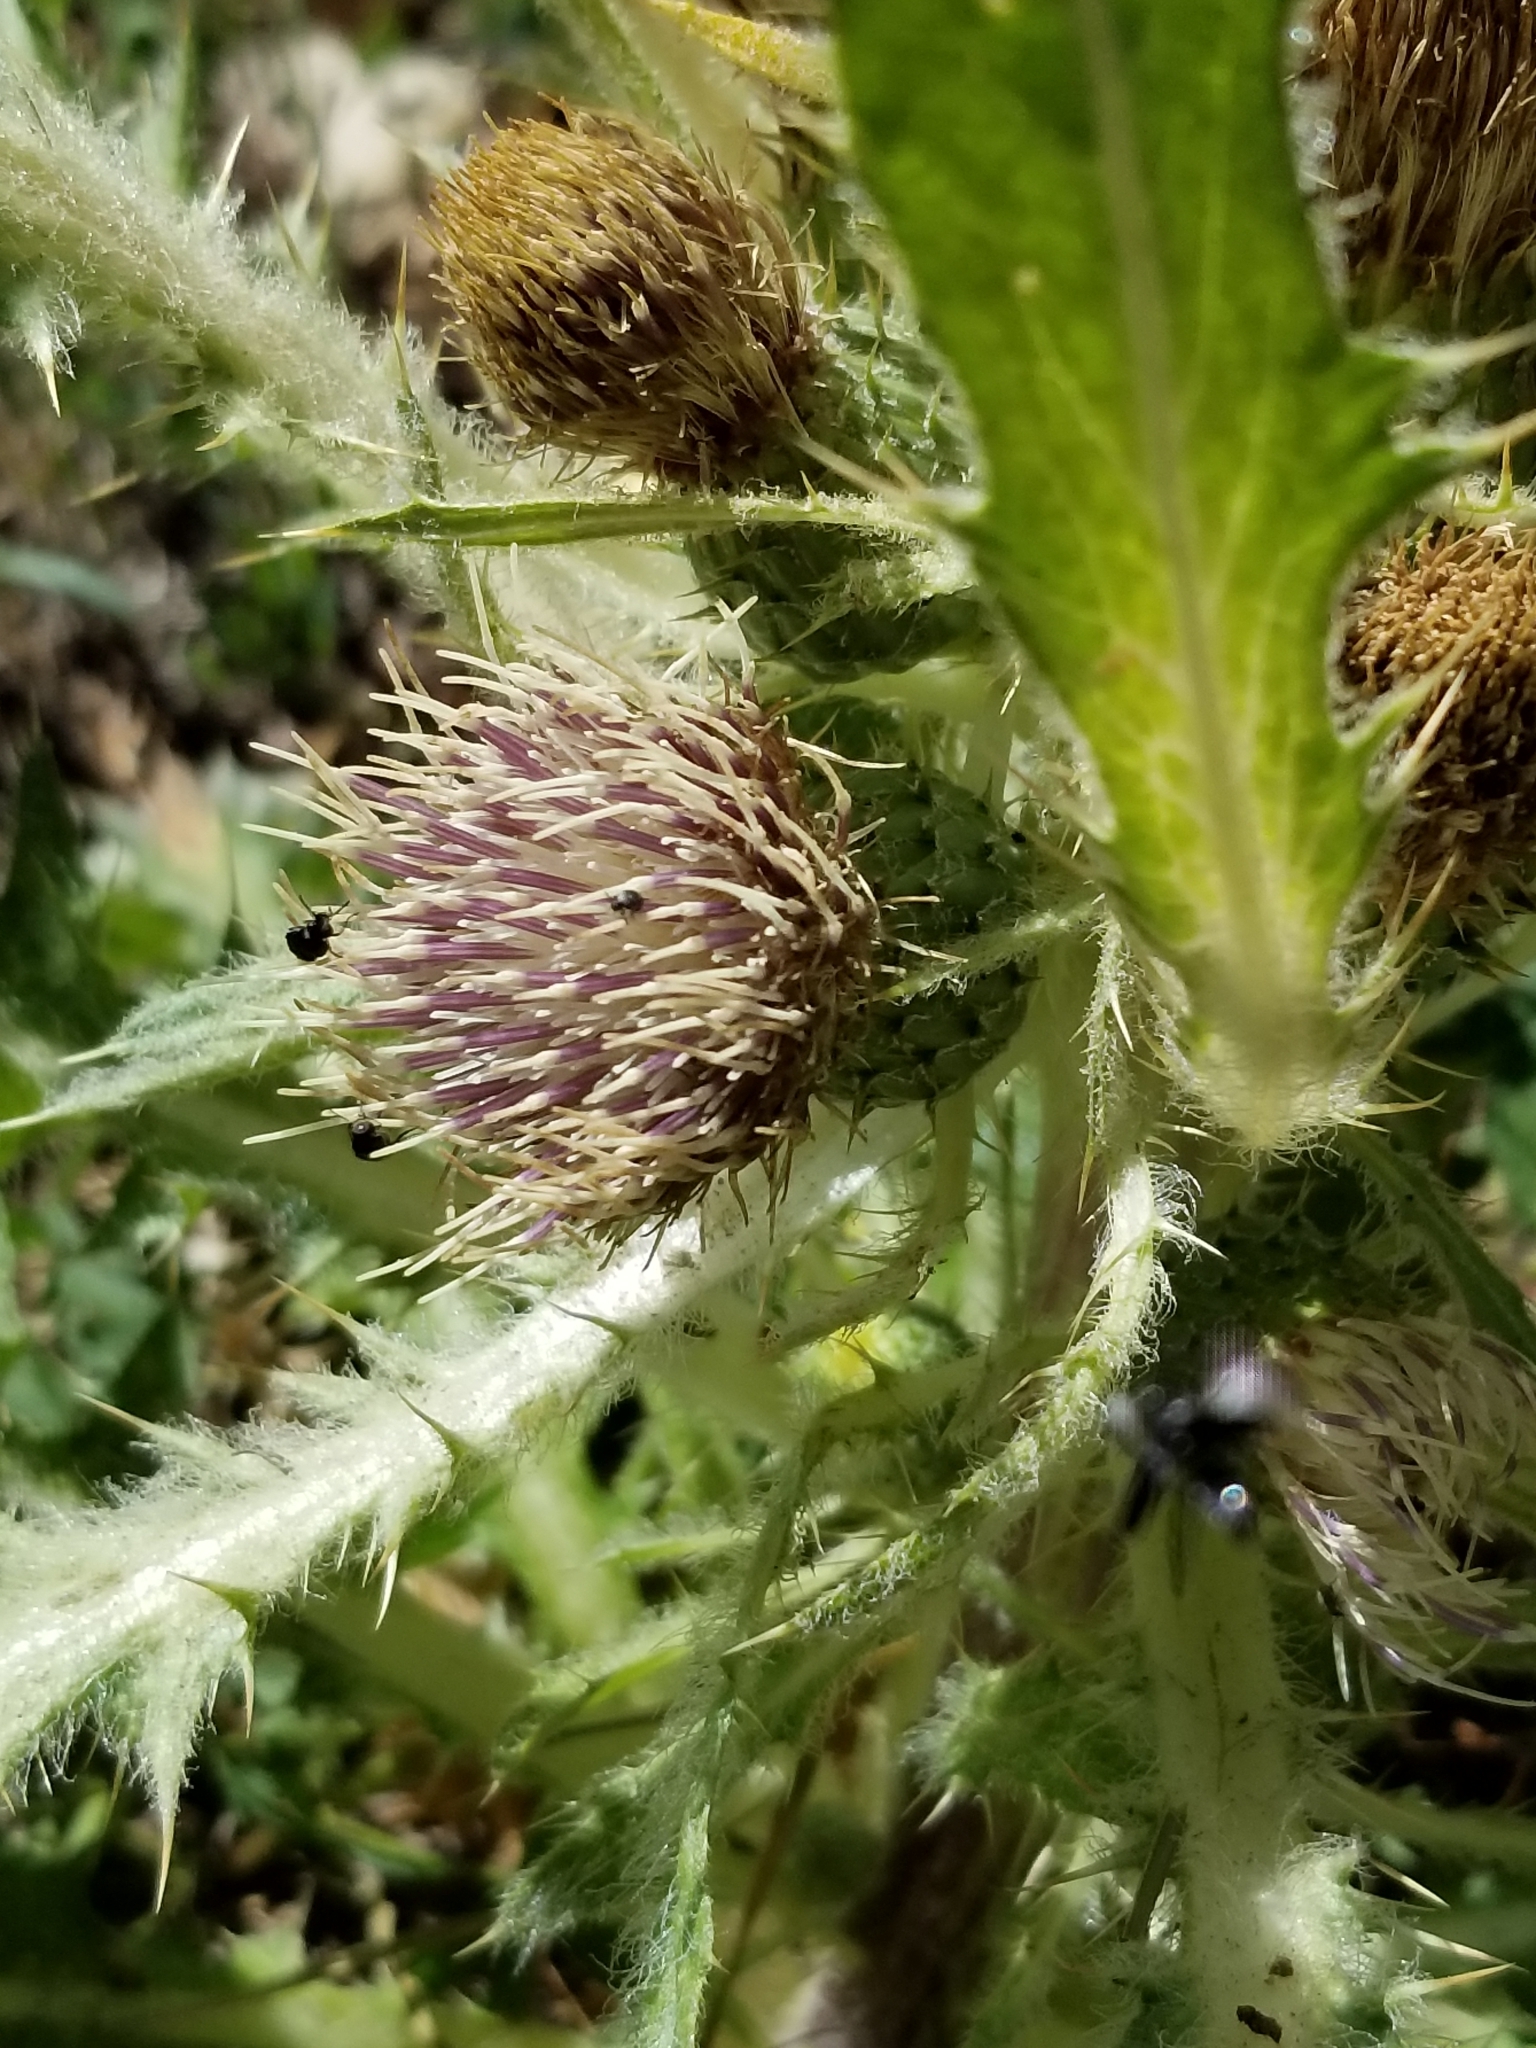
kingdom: Plantae
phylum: Tracheophyta
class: Magnoliopsida
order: Asterales
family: Asteraceae
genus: Cirsium
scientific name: Cirsium scariosum
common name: Meadow thistle
